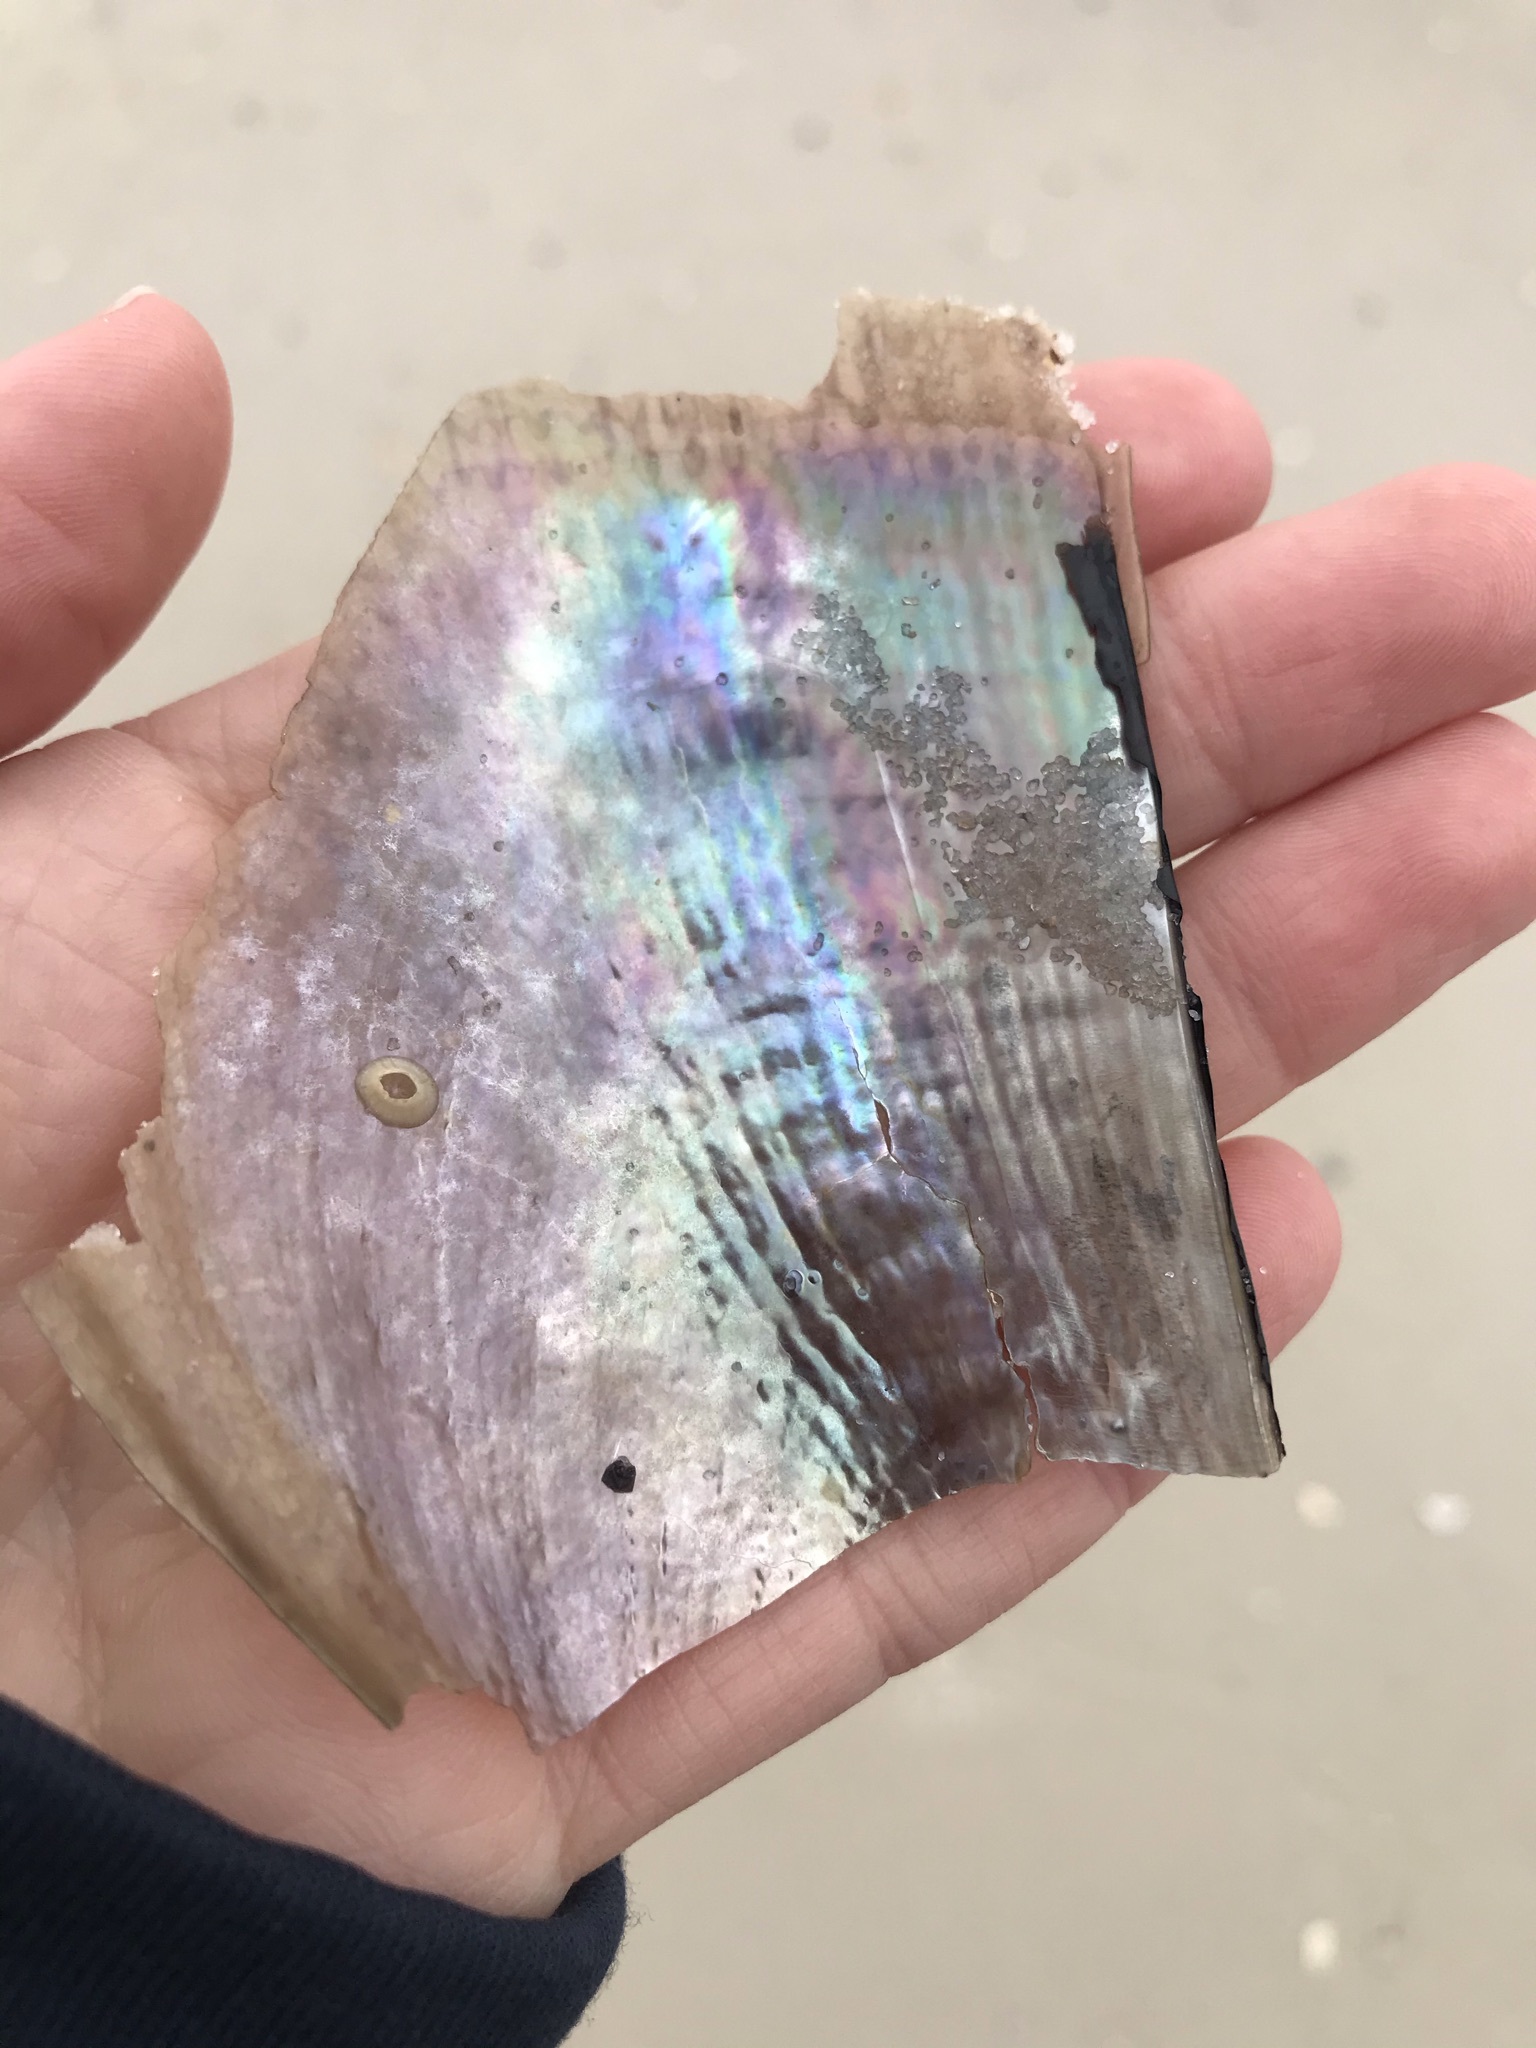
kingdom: Animalia
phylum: Mollusca
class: Bivalvia
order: Ostreida
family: Pinnidae
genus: Atrina
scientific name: Atrina serrata
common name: Saw-toothed penshell
